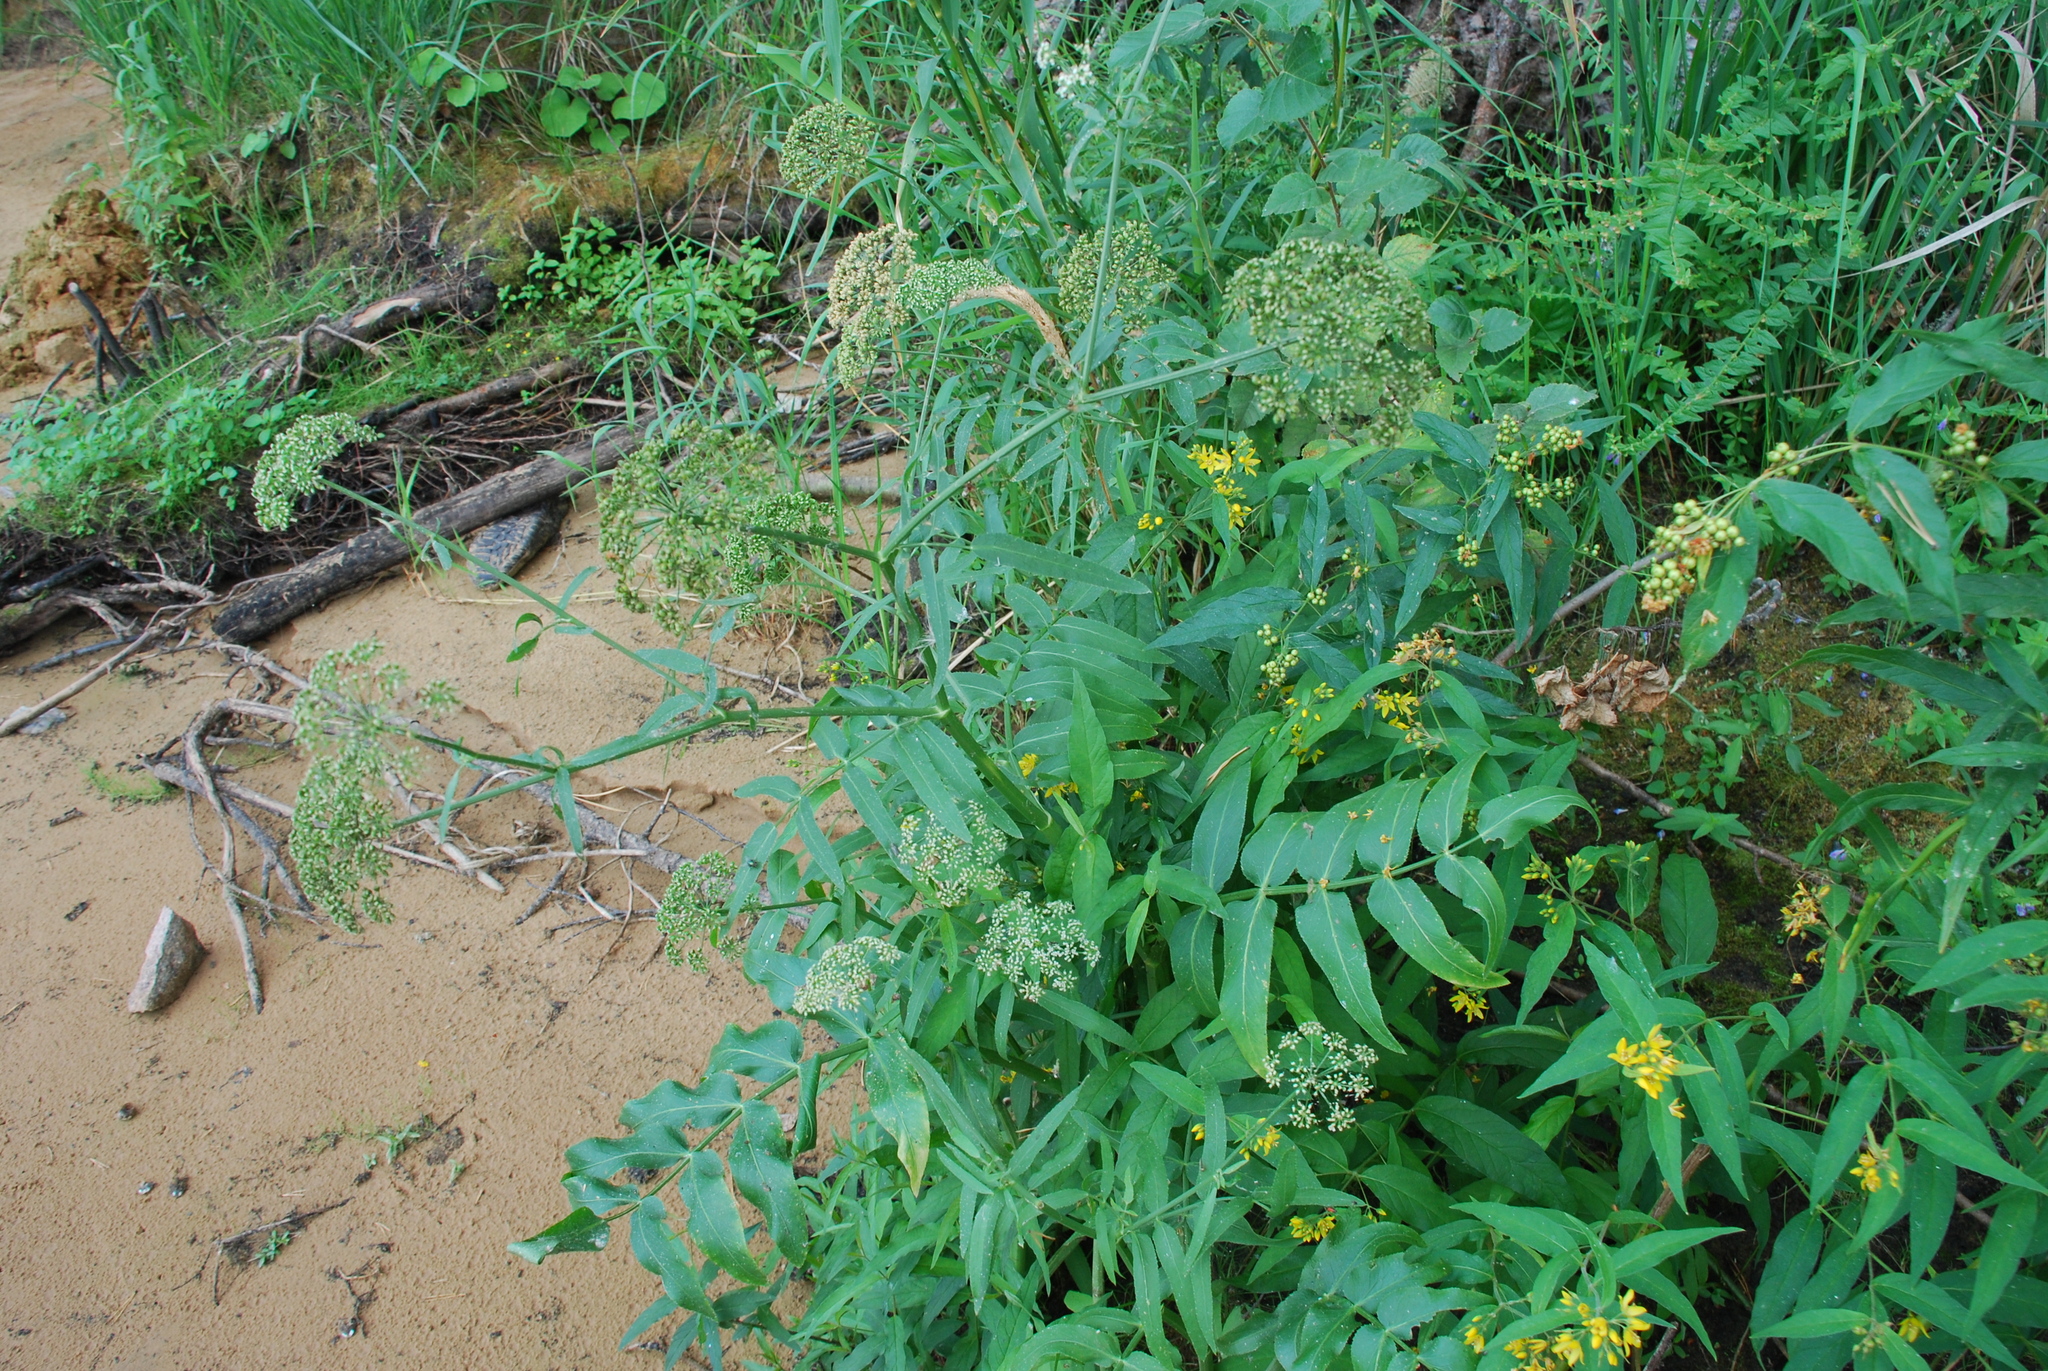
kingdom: Plantae
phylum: Tracheophyta
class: Magnoliopsida
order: Apiales
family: Apiaceae
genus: Sium
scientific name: Sium latifolium
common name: Greater water-parsnip
